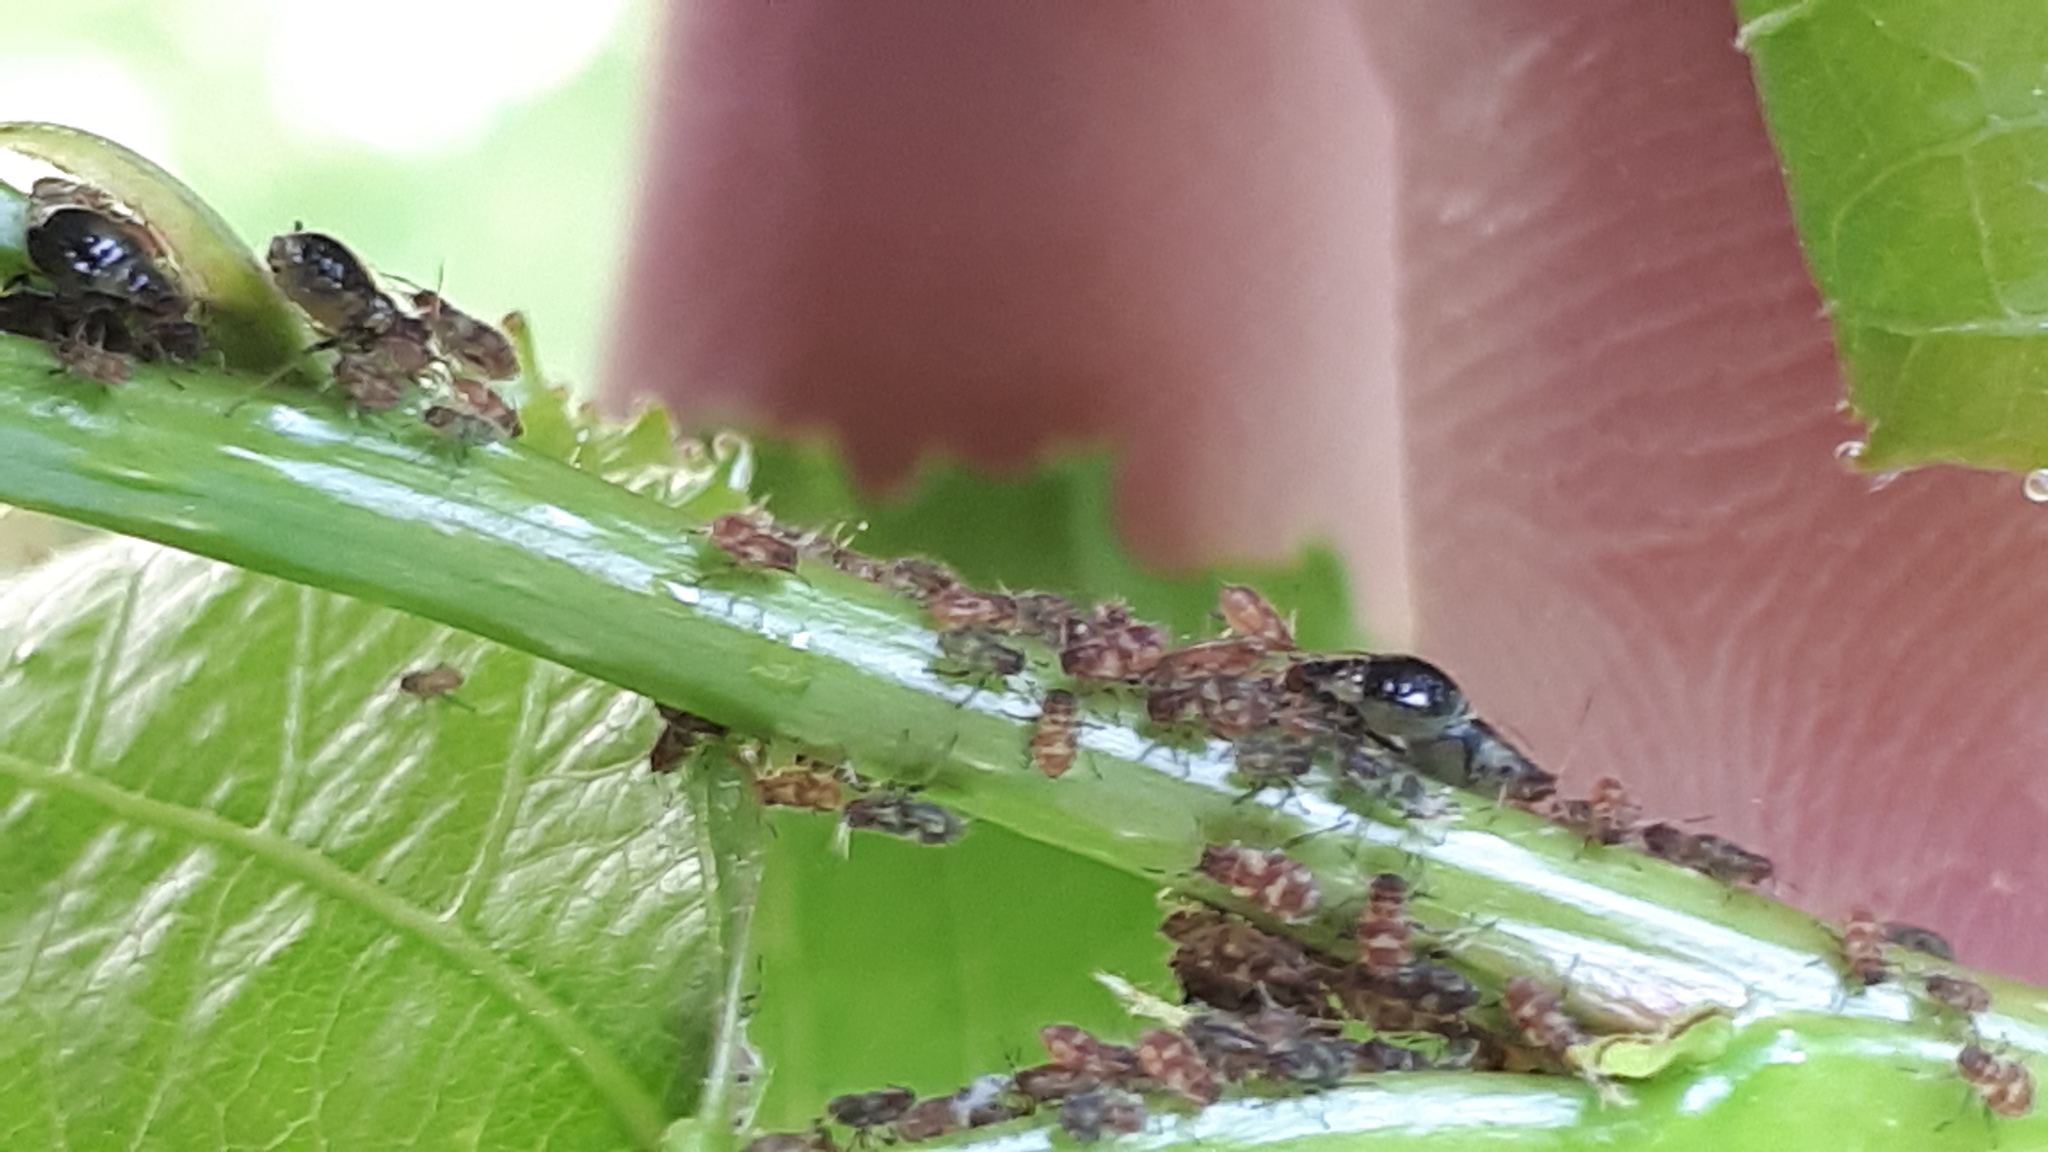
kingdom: Animalia
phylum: Arthropoda
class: Insecta
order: Hemiptera
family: Aphididae
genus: Chaitophorus
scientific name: Chaitophorus populeti
